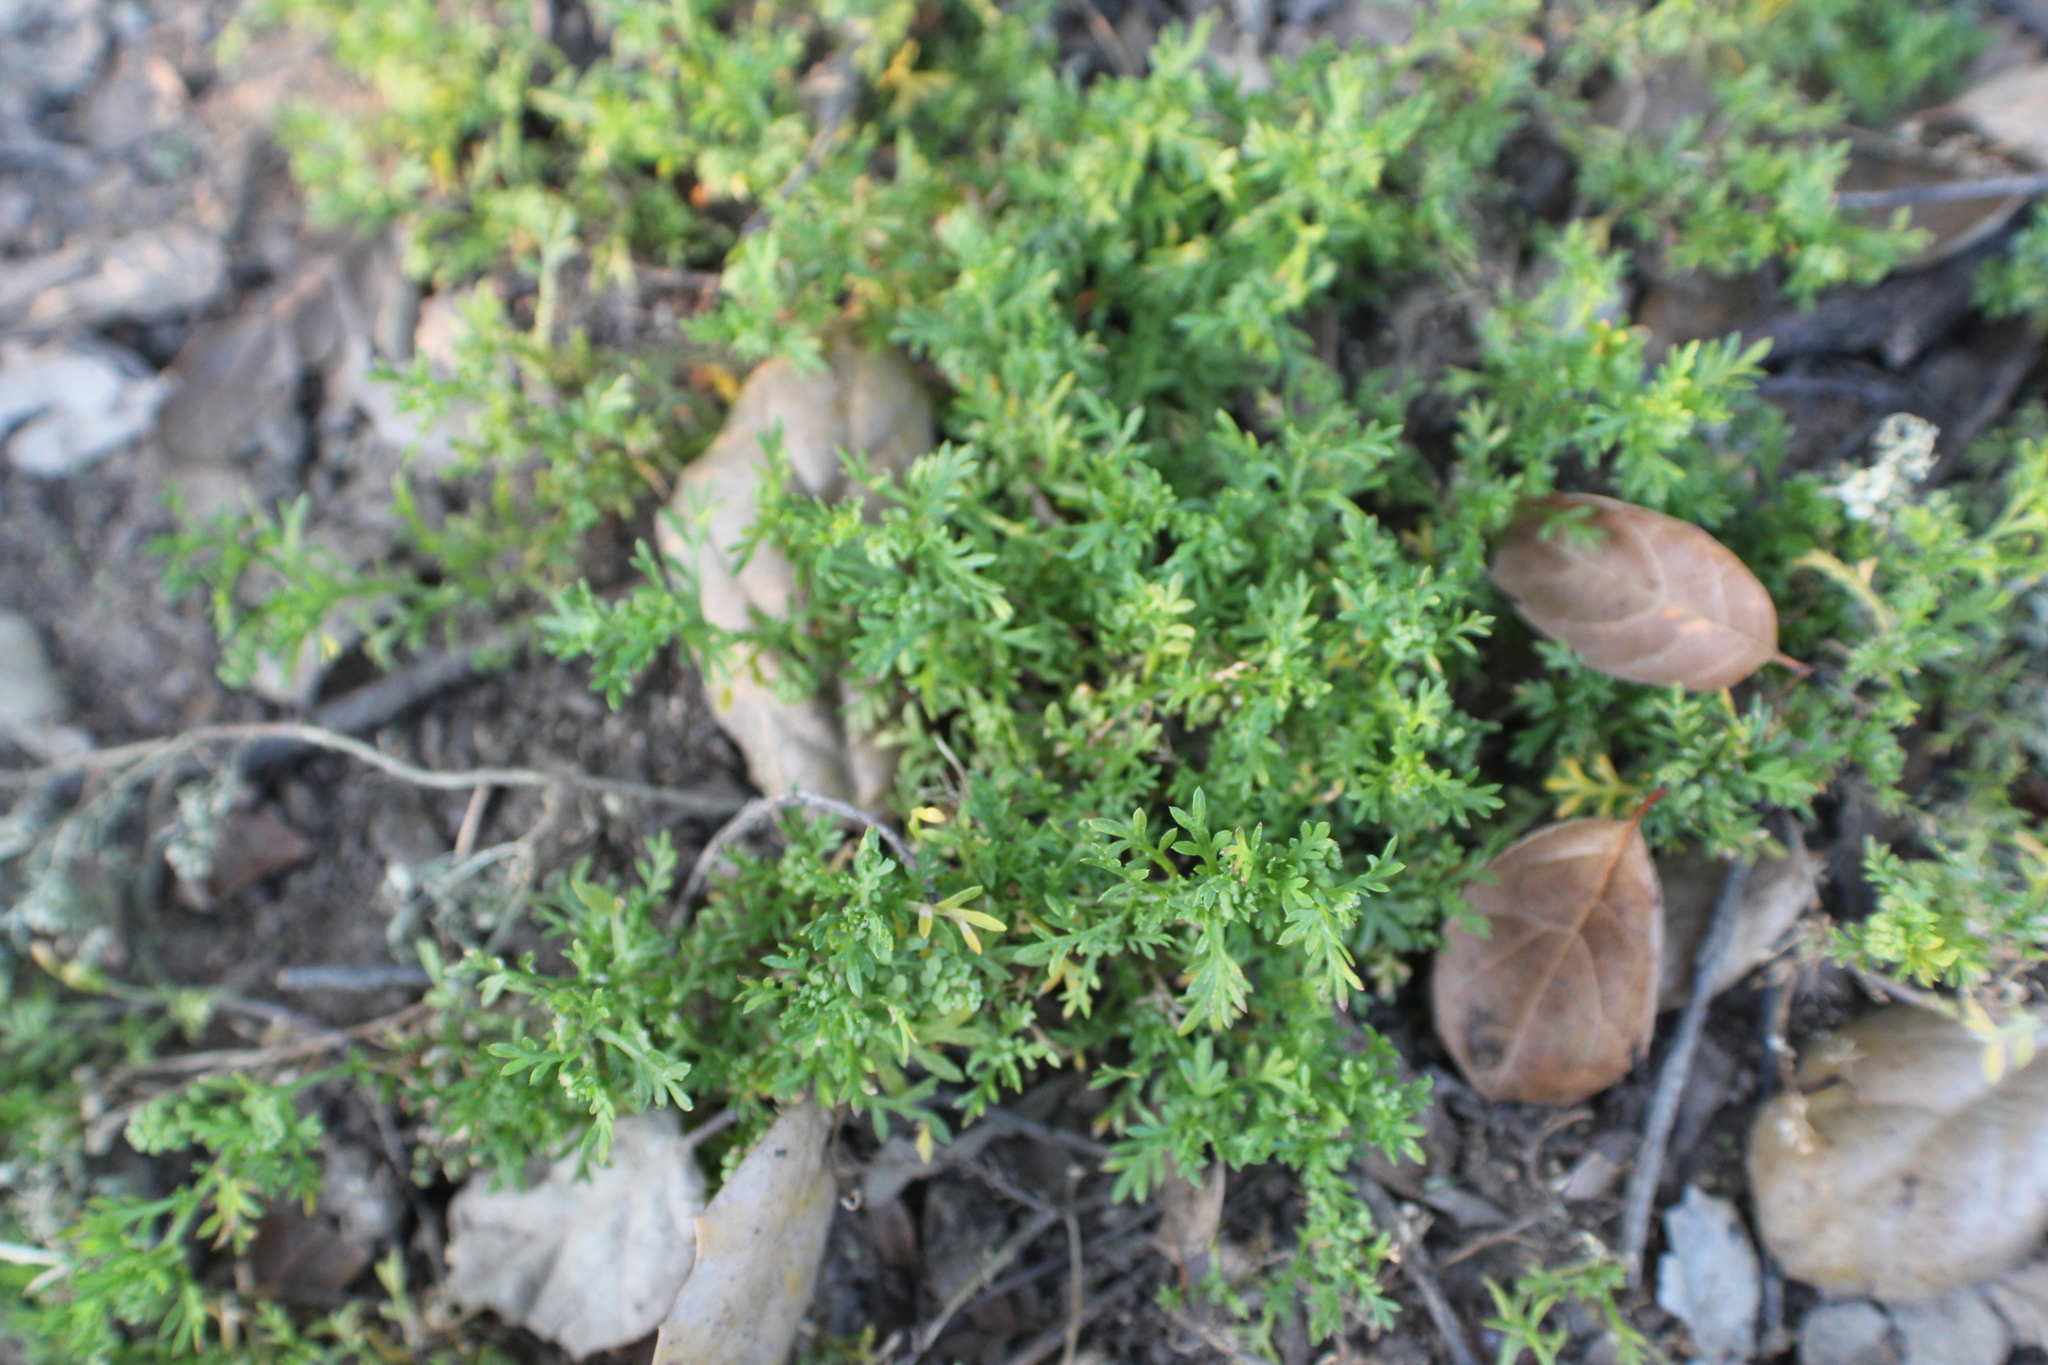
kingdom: Plantae
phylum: Tracheophyta
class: Magnoliopsida
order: Brassicales
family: Brassicaceae
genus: Lepidium
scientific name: Lepidium didymum
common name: Lesser swinecress
